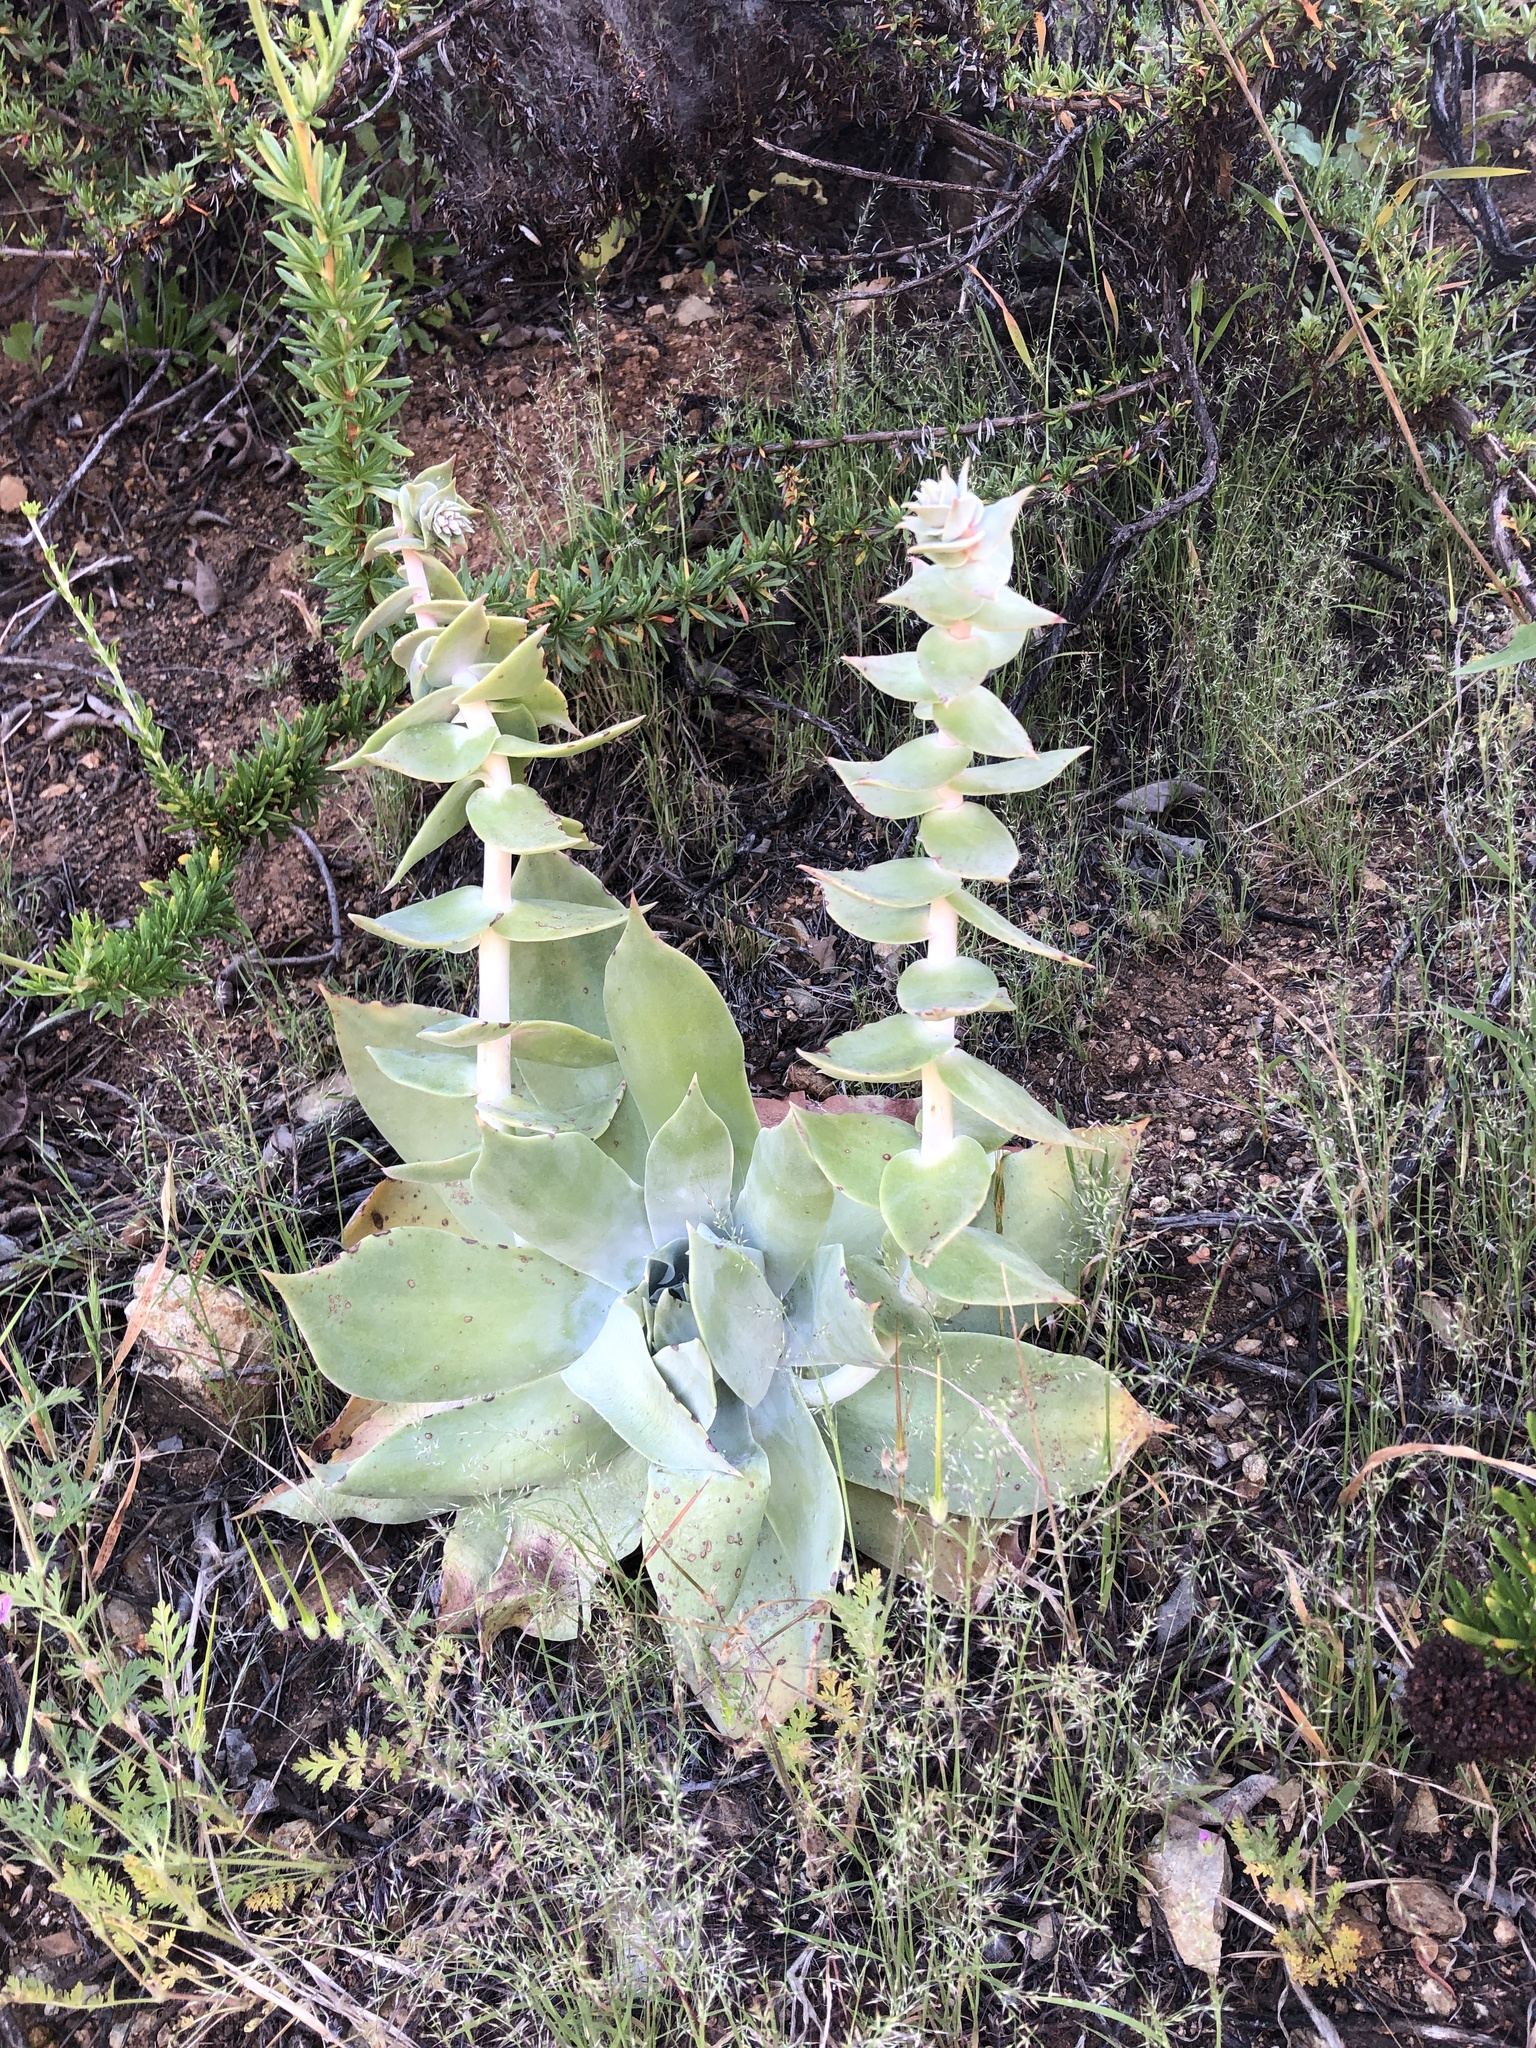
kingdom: Plantae
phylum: Tracheophyta
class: Magnoliopsida
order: Saxifragales
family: Crassulaceae
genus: Dudleya
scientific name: Dudleya pulverulenta
